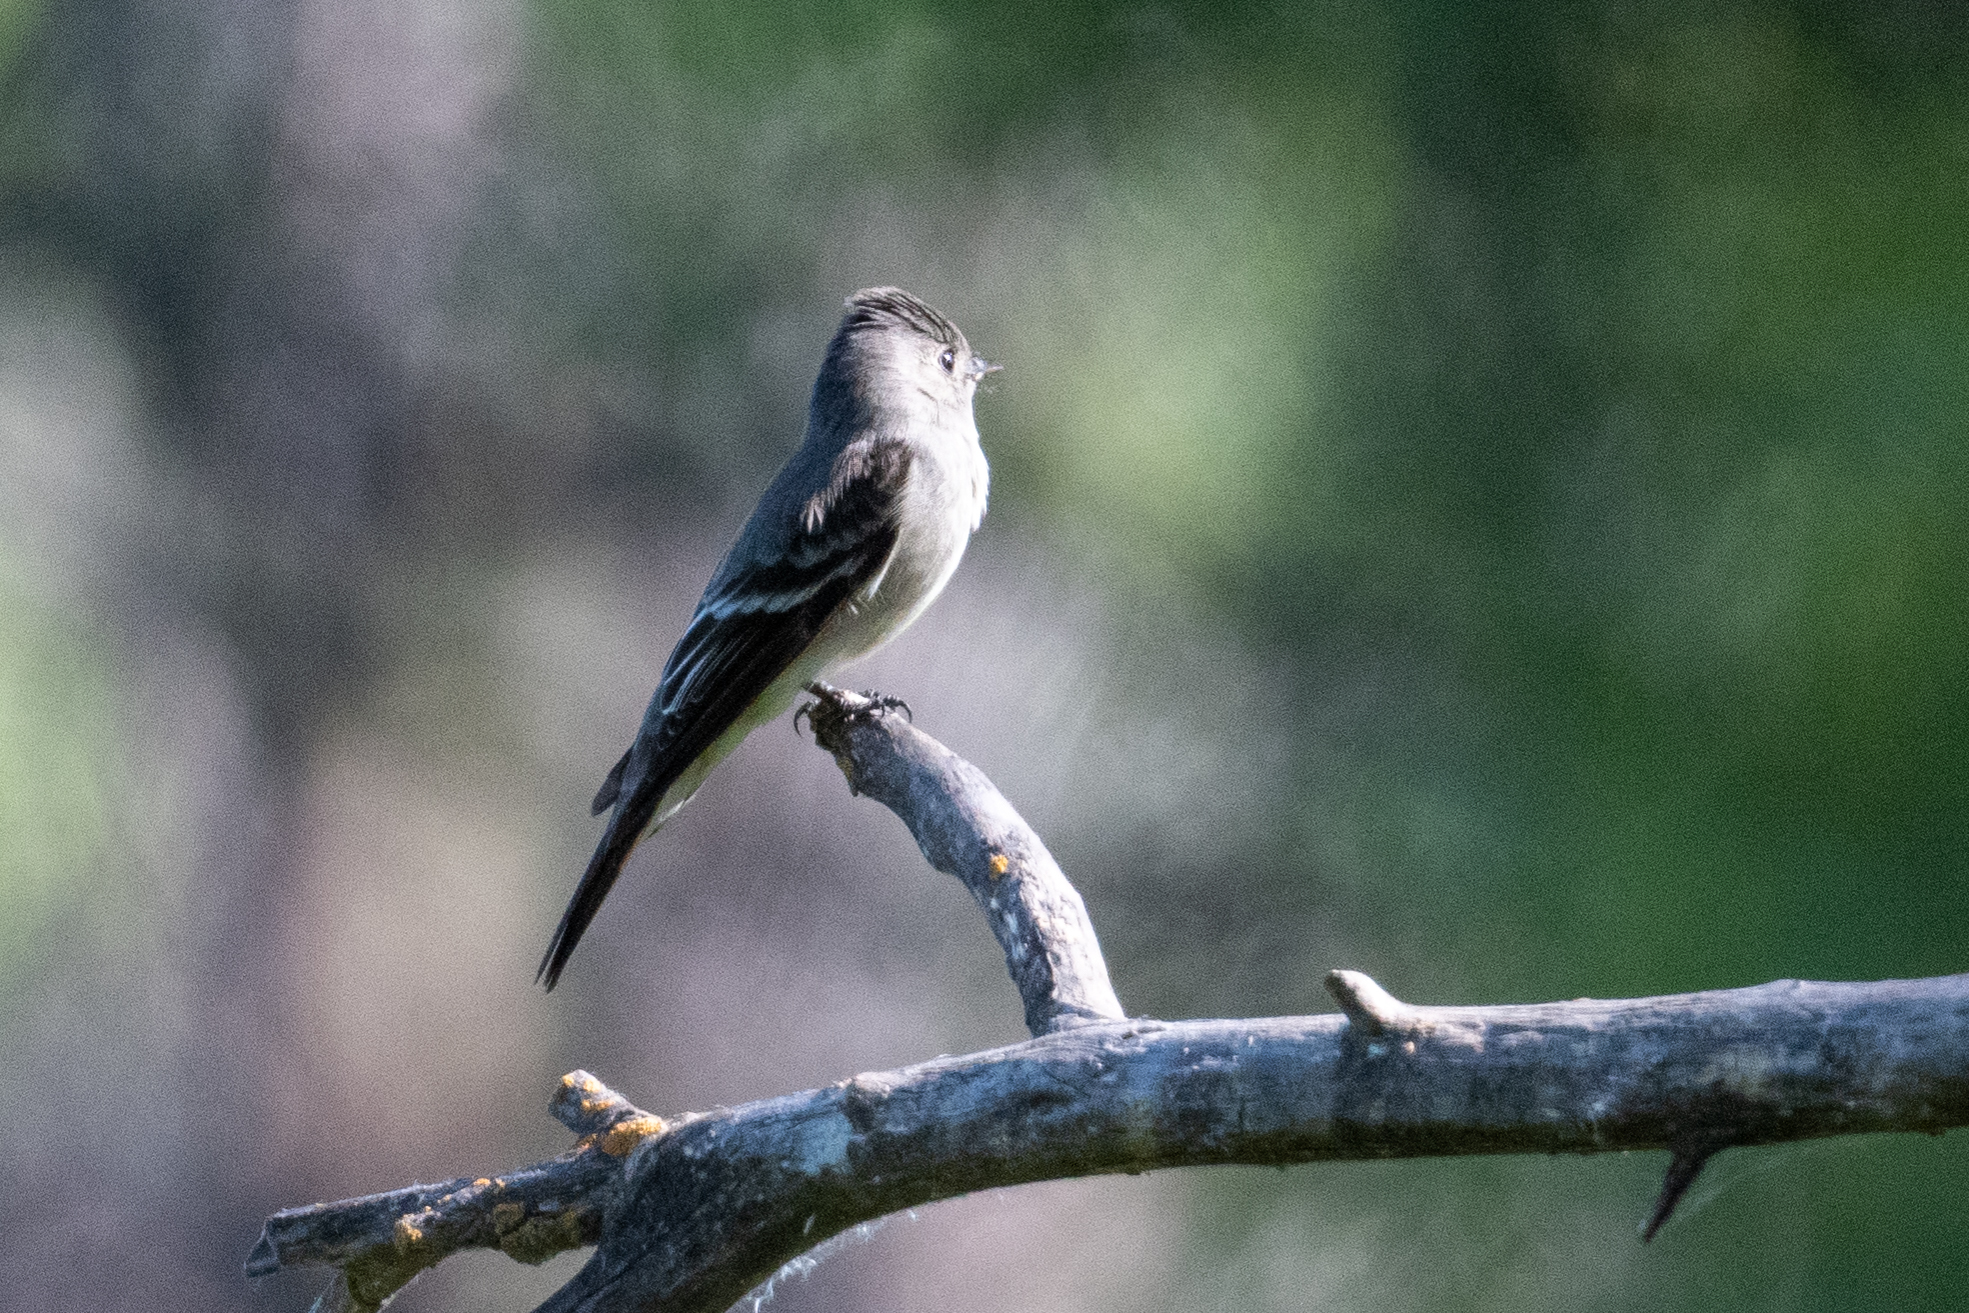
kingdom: Animalia
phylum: Chordata
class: Aves
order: Passeriformes
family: Tyrannidae
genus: Contopus
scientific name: Contopus sordidulus
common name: Western wood-pewee
